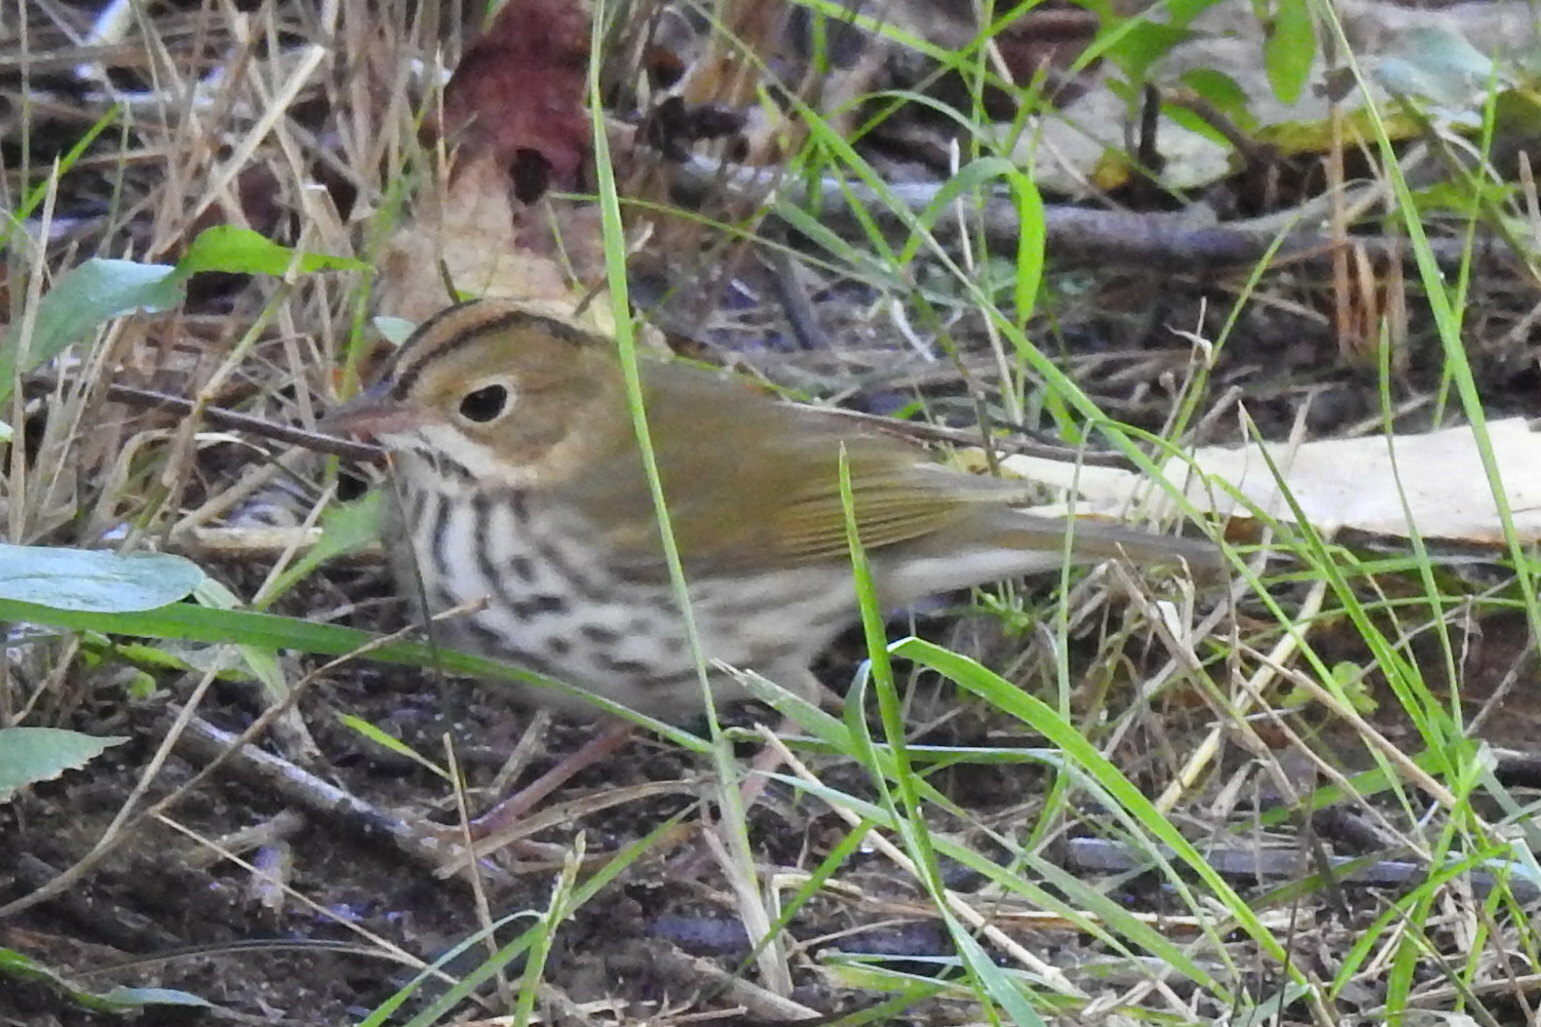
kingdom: Animalia
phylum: Chordata
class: Aves
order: Passeriformes
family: Parulidae
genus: Seiurus
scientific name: Seiurus aurocapilla
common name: Ovenbird
